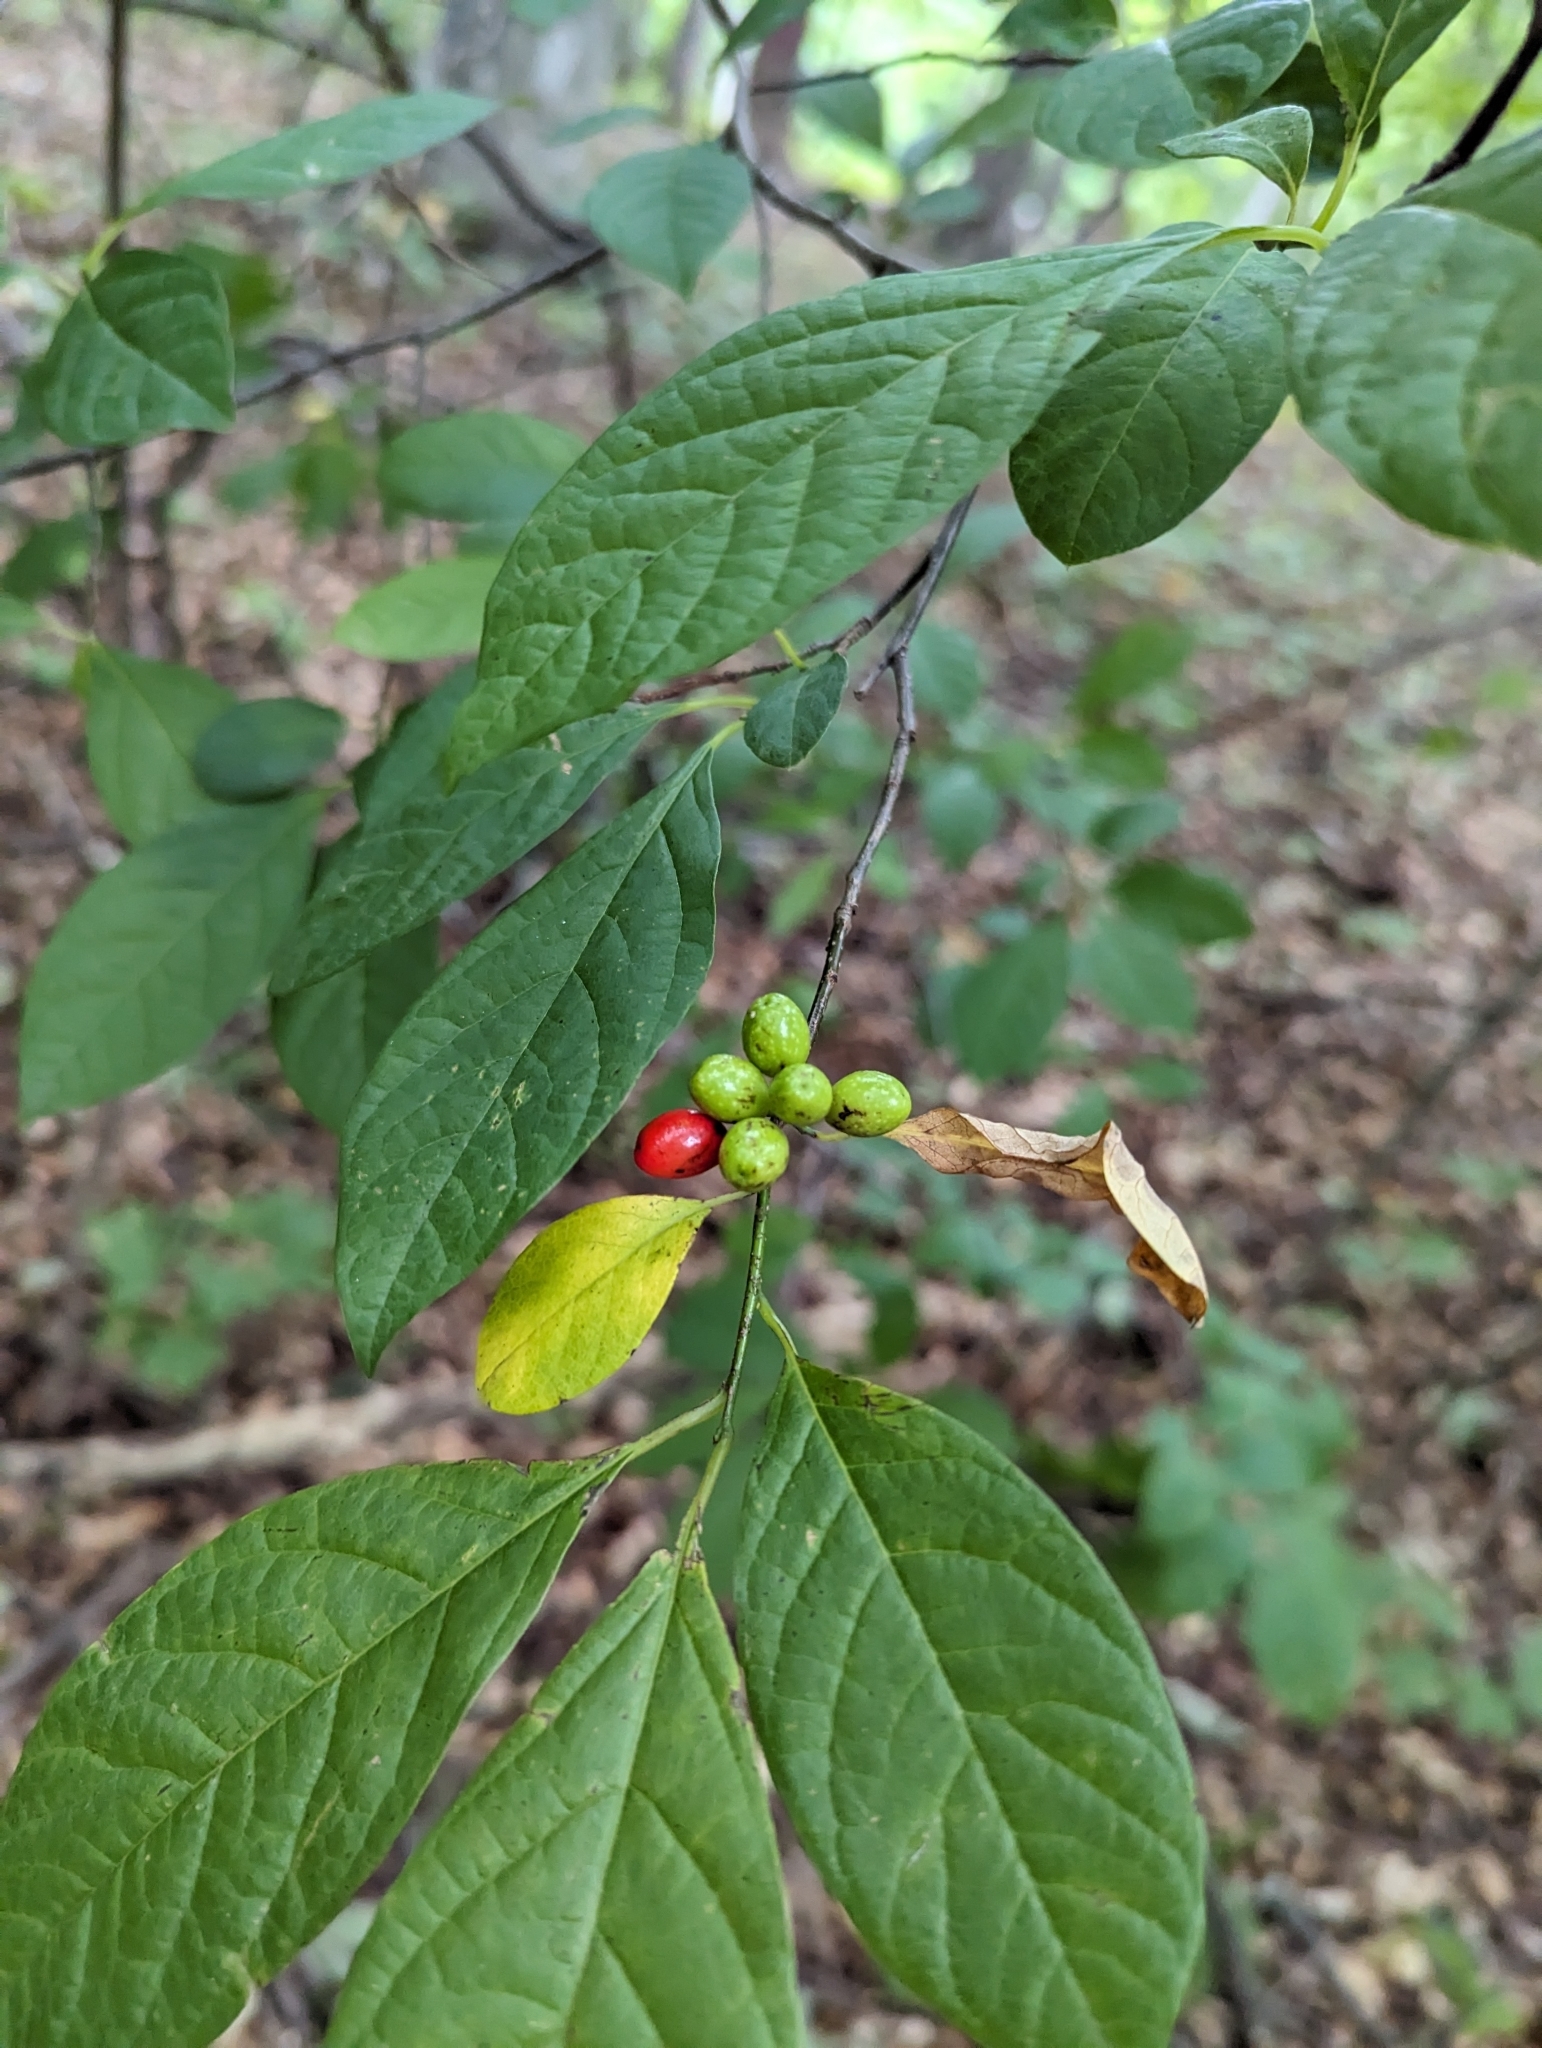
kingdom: Plantae
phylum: Tracheophyta
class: Magnoliopsida
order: Laurales
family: Lauraceae
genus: Lindera
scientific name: Lindera benzoin
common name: Spicebush
